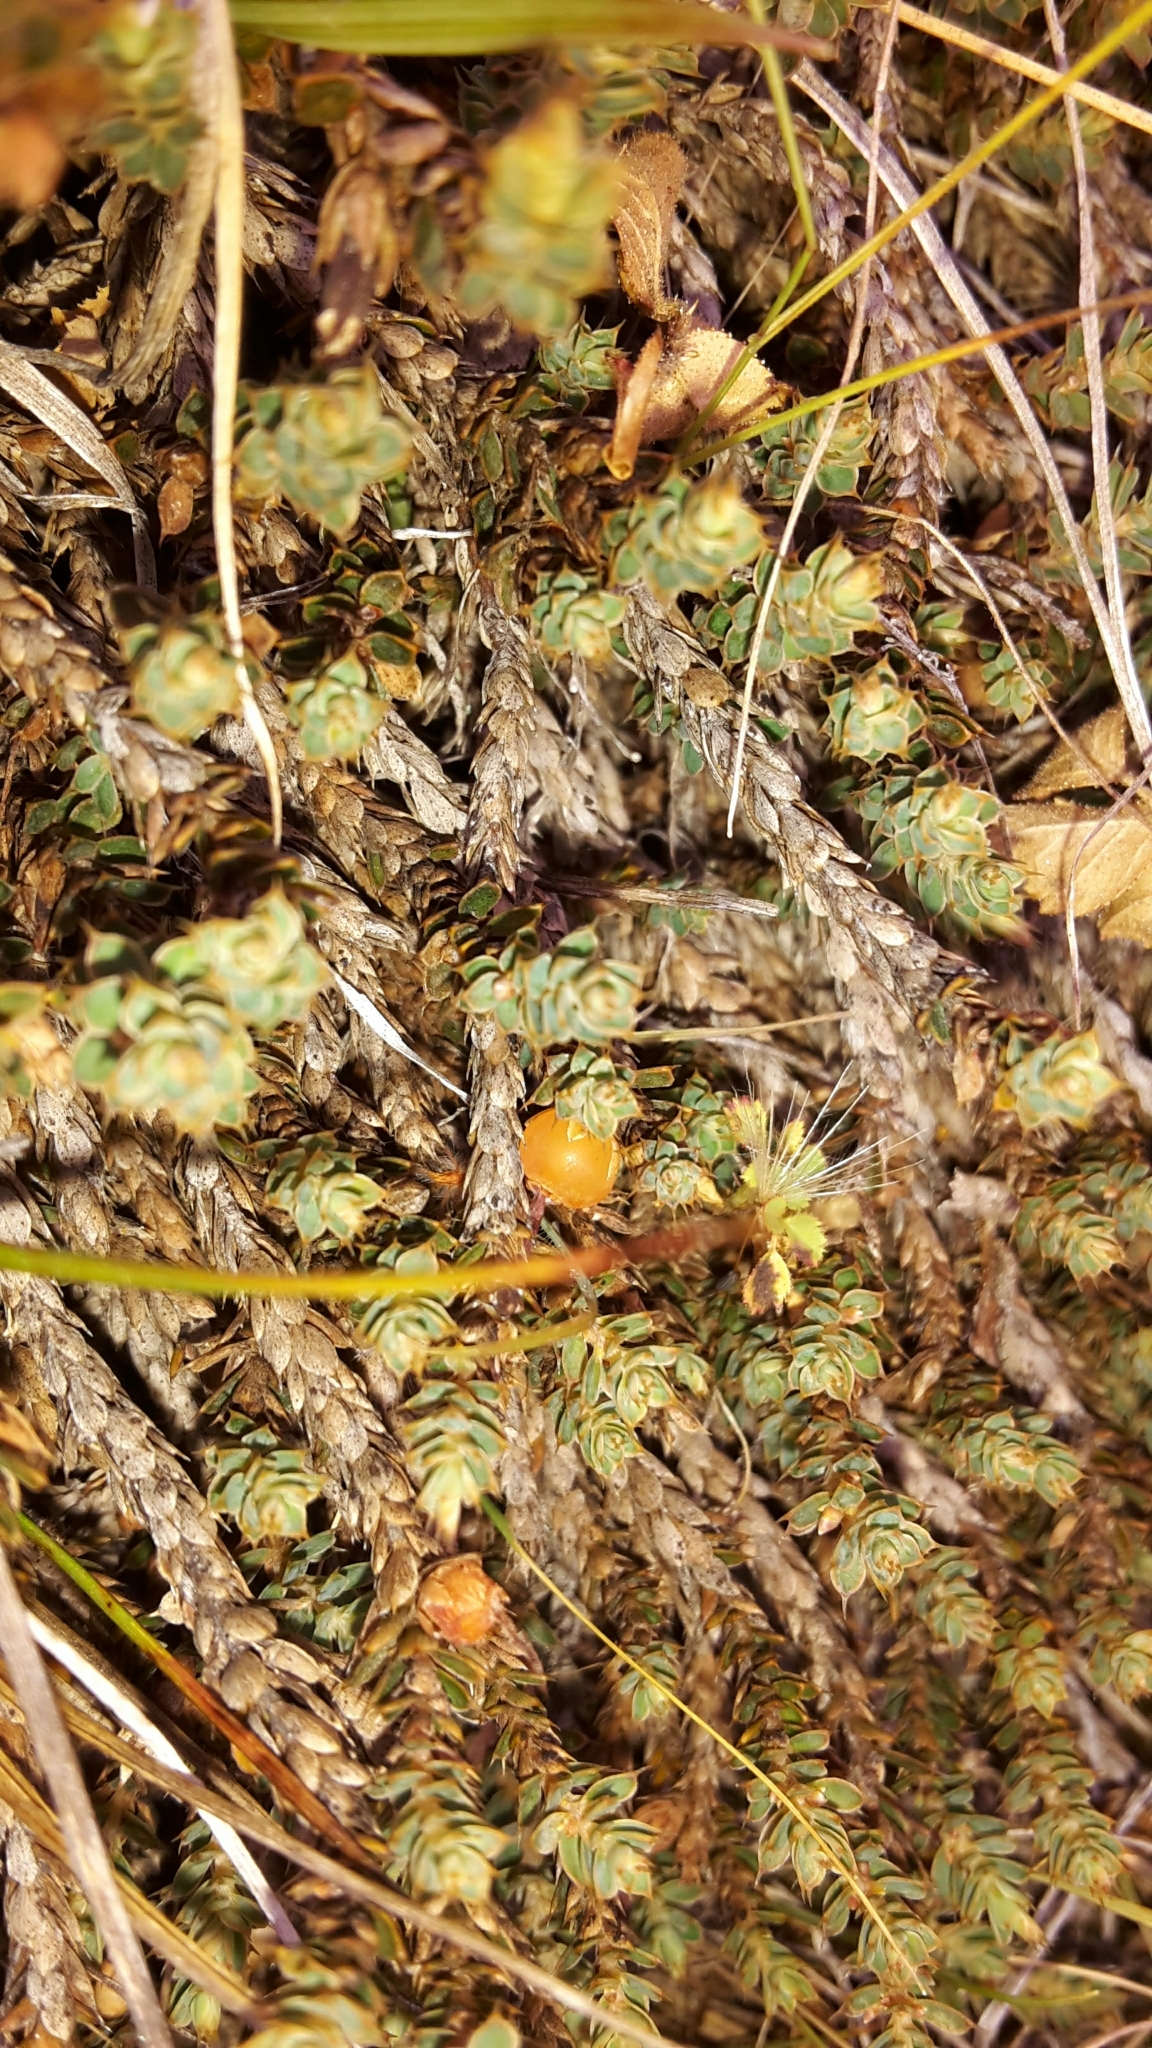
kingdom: Plantae
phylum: Tracheophyta
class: Magnoliopsida
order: Ericales
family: Ericaceae
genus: Styphelia
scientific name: Styphelia nesophila
